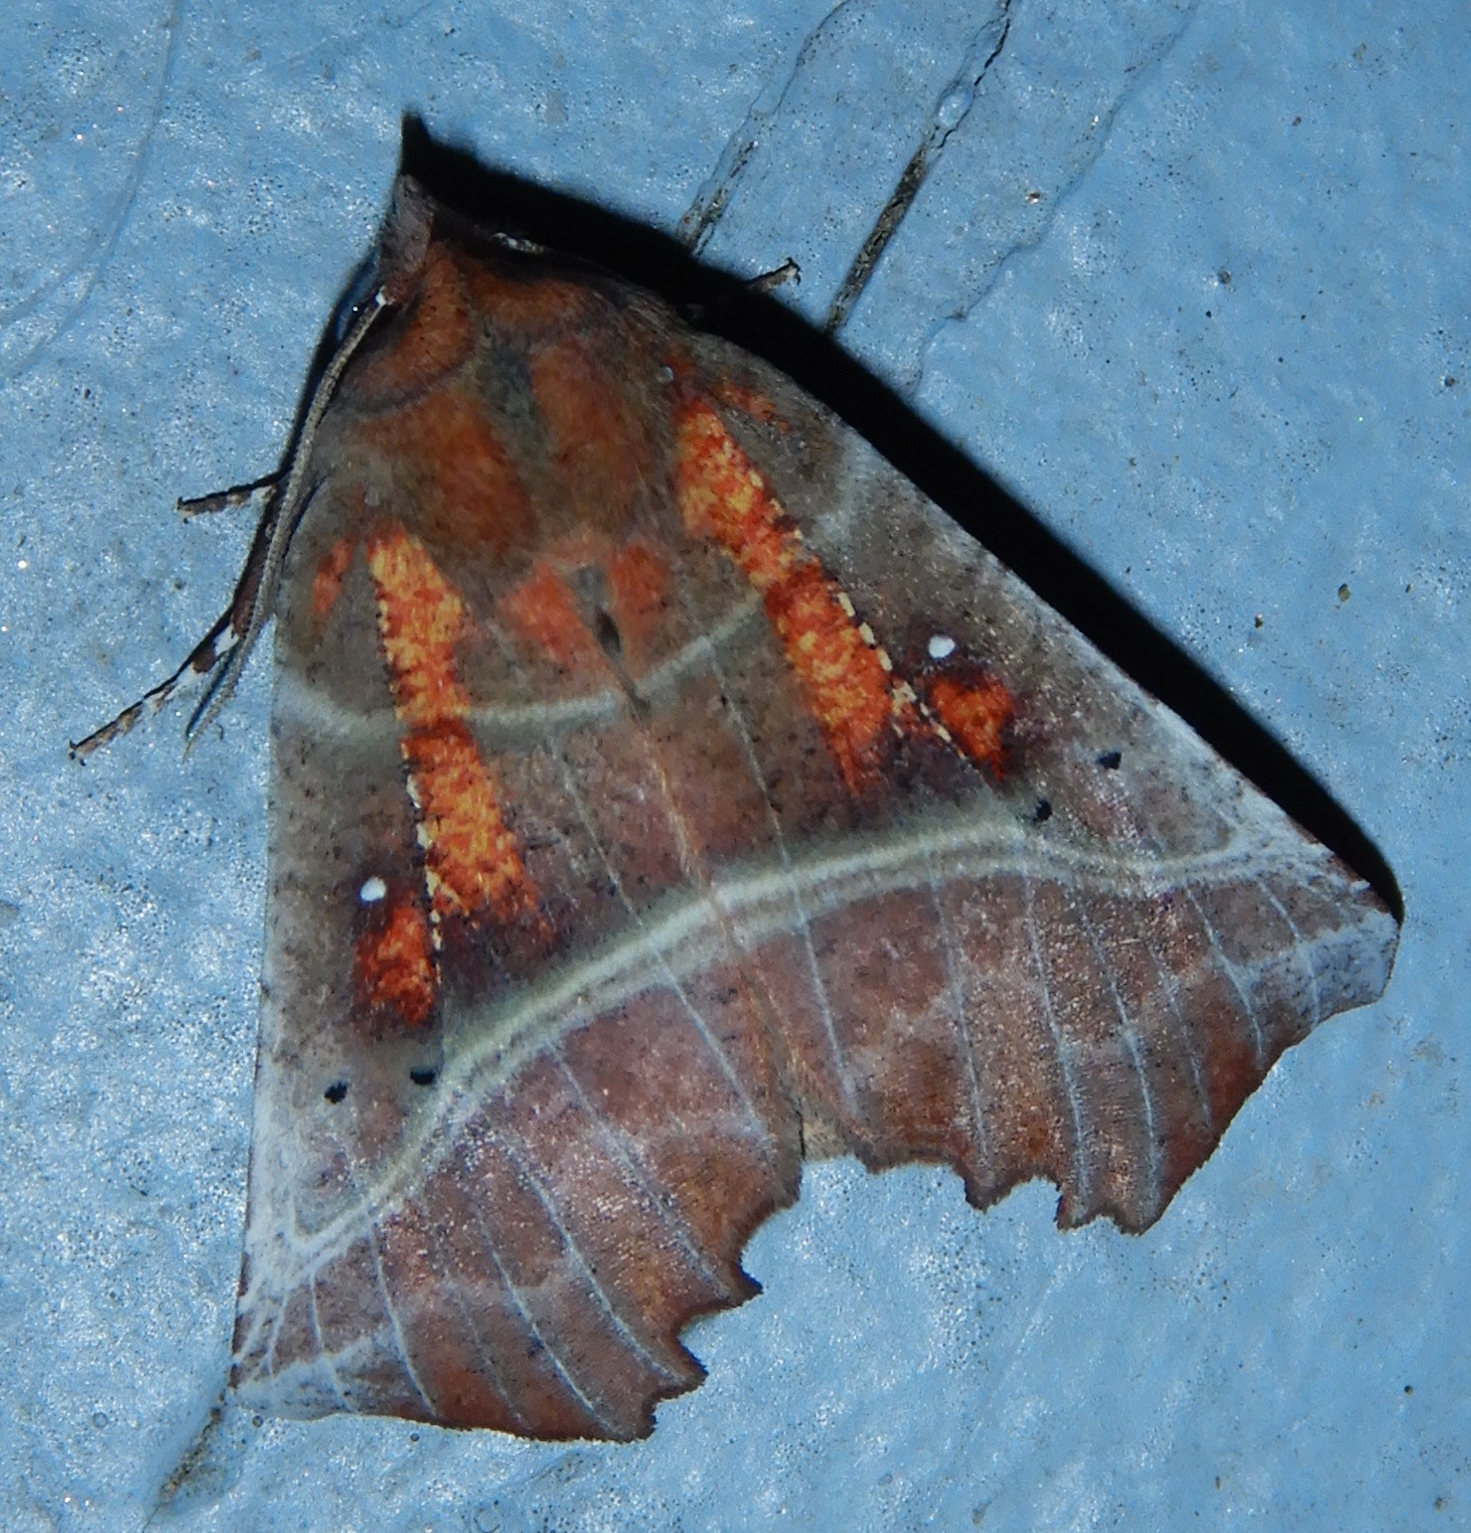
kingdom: Animalia
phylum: Arthropoda
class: Insecta
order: Lepidoptera
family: Erebidae
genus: Scoliopteryx
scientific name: Scoliopteryx libatrix
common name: Herald
